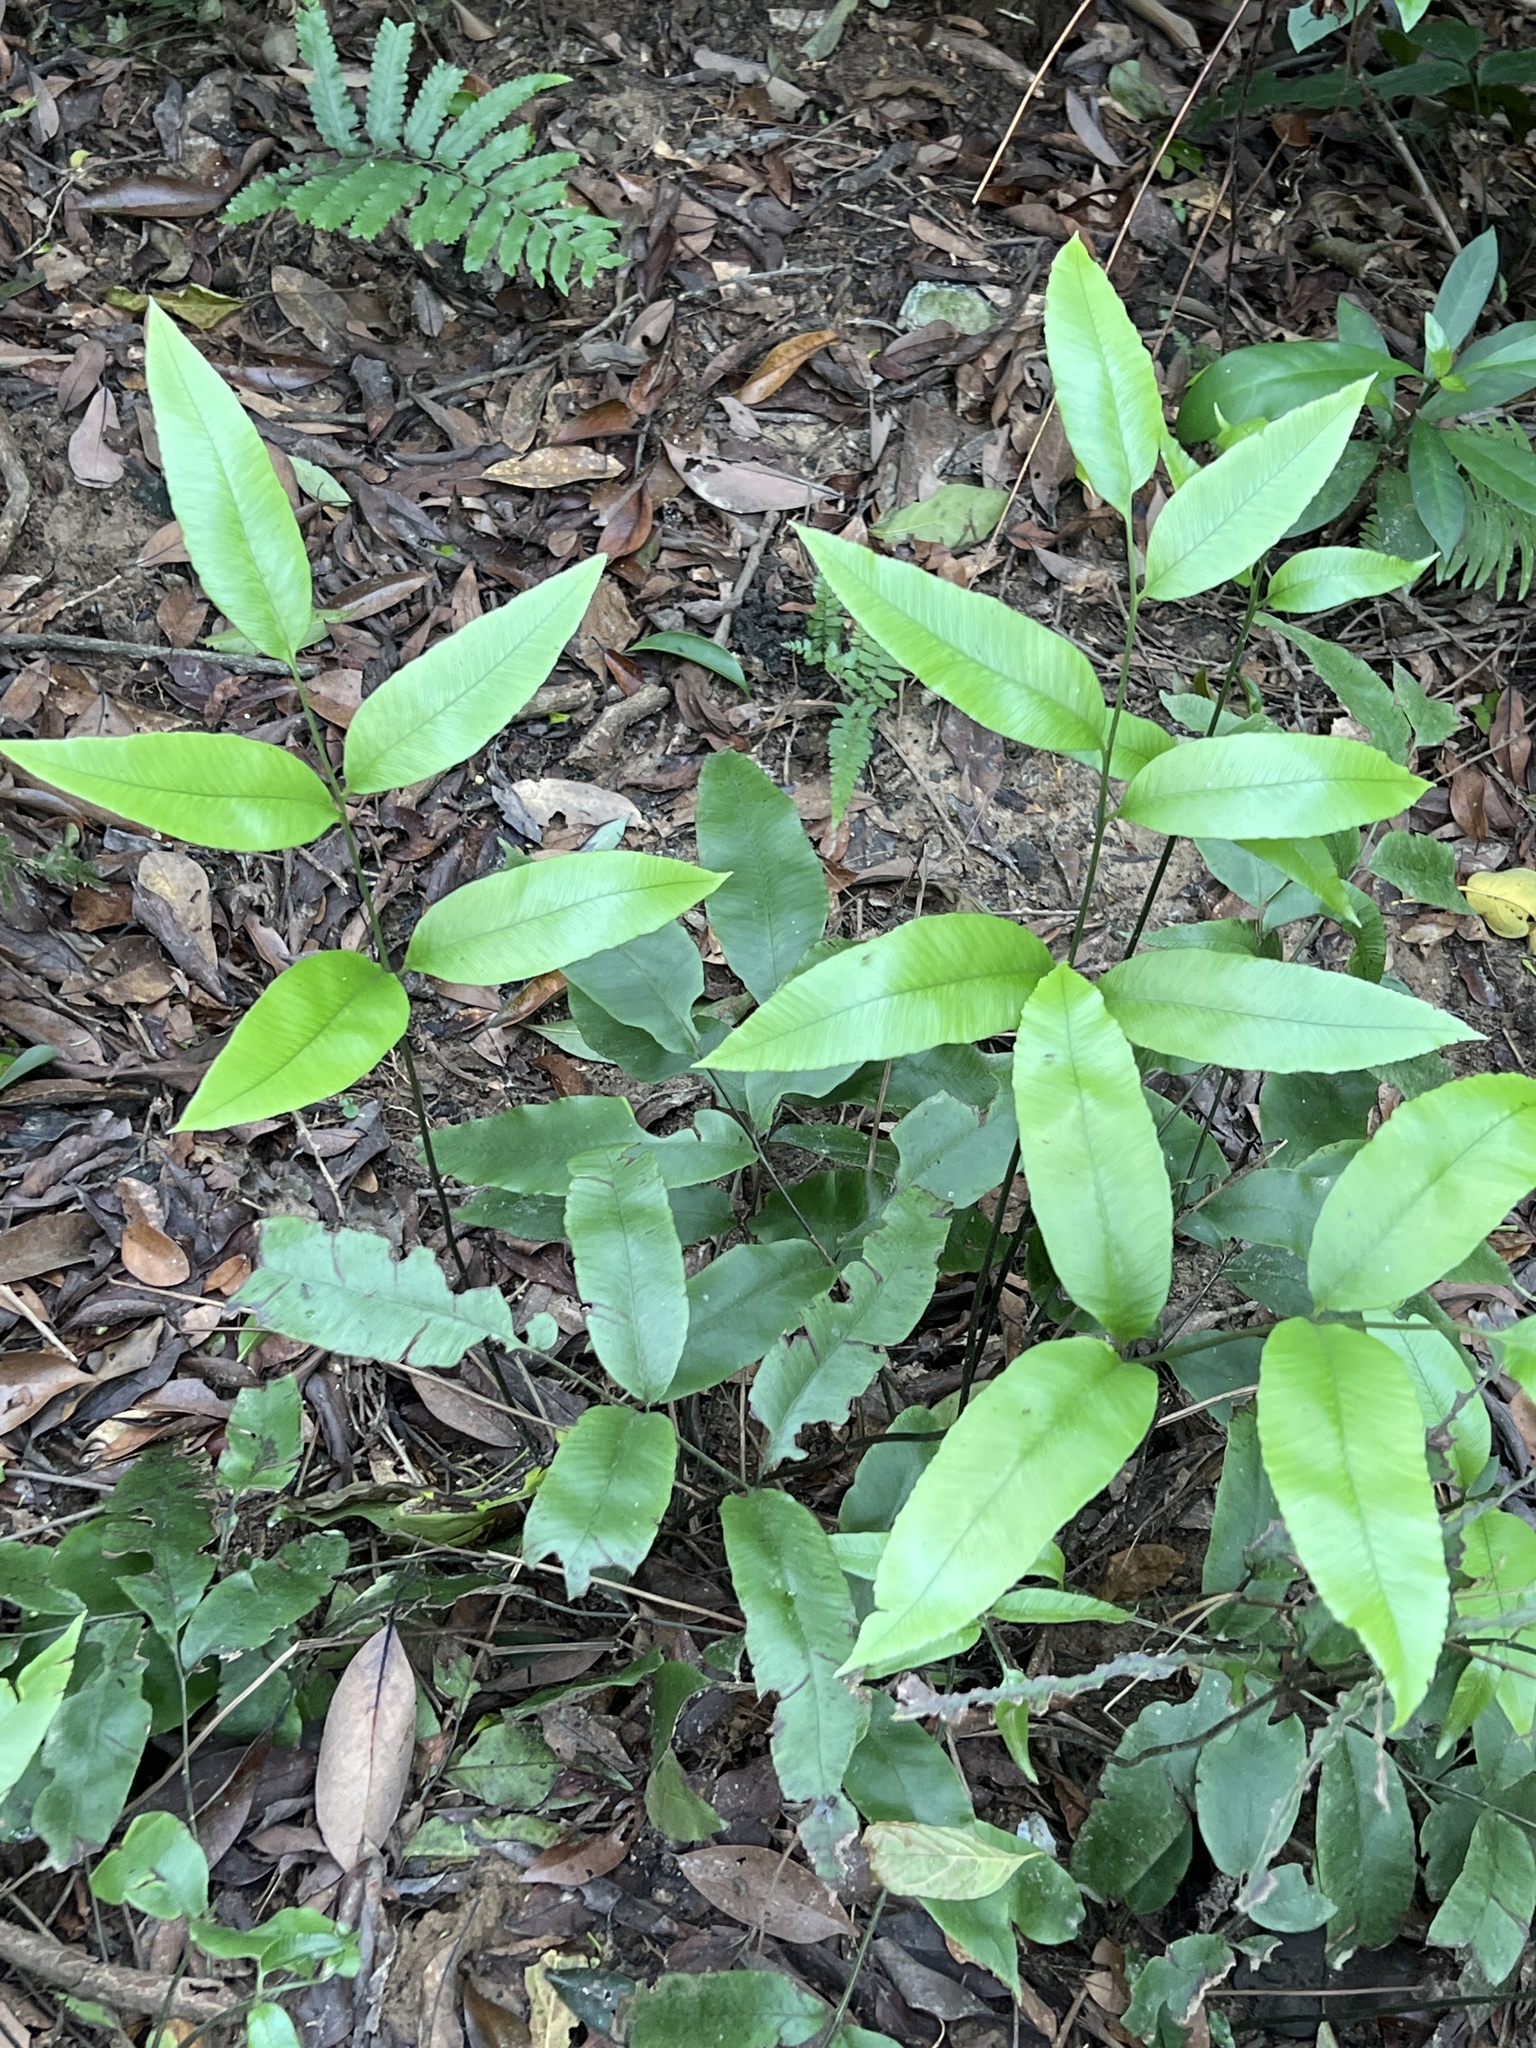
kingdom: Plantae
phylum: Tracheophyta
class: Polypodiopsida
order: Polypodiales
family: Athyriaceae
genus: Diplazium
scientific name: Diplazium lineolatum
